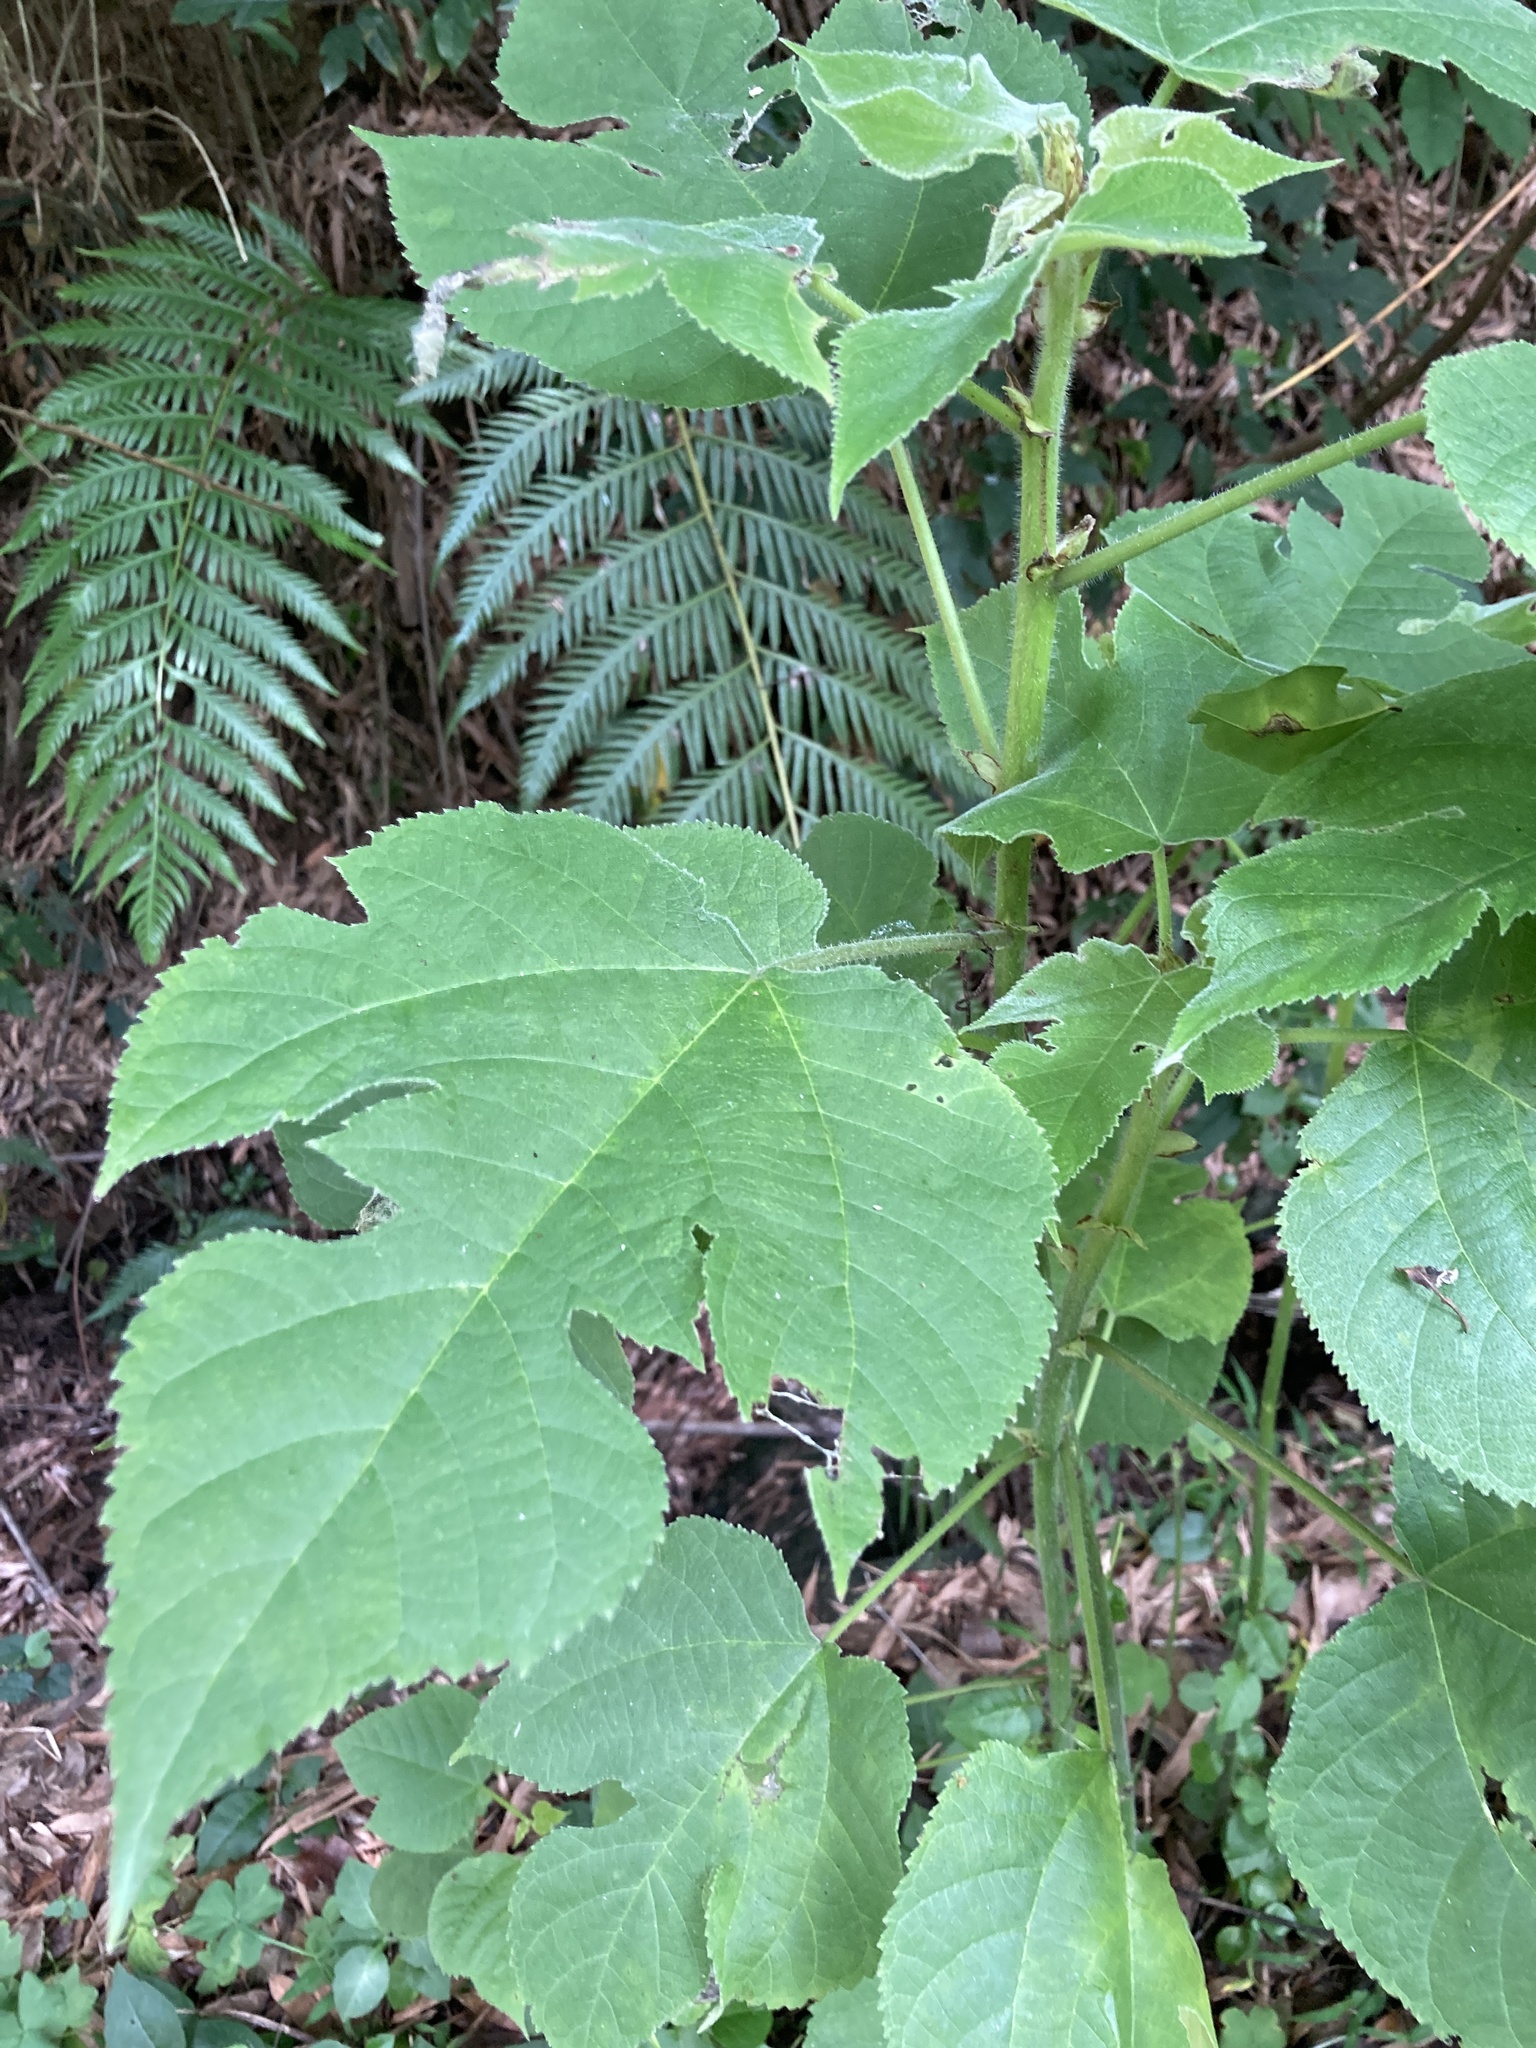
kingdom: Plantae
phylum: Tracheophyta
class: Magnoliopsida
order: Rosales
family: Moraceae
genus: Broussonetia
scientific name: Broussonetia papyrifera
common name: Paper mulberry
